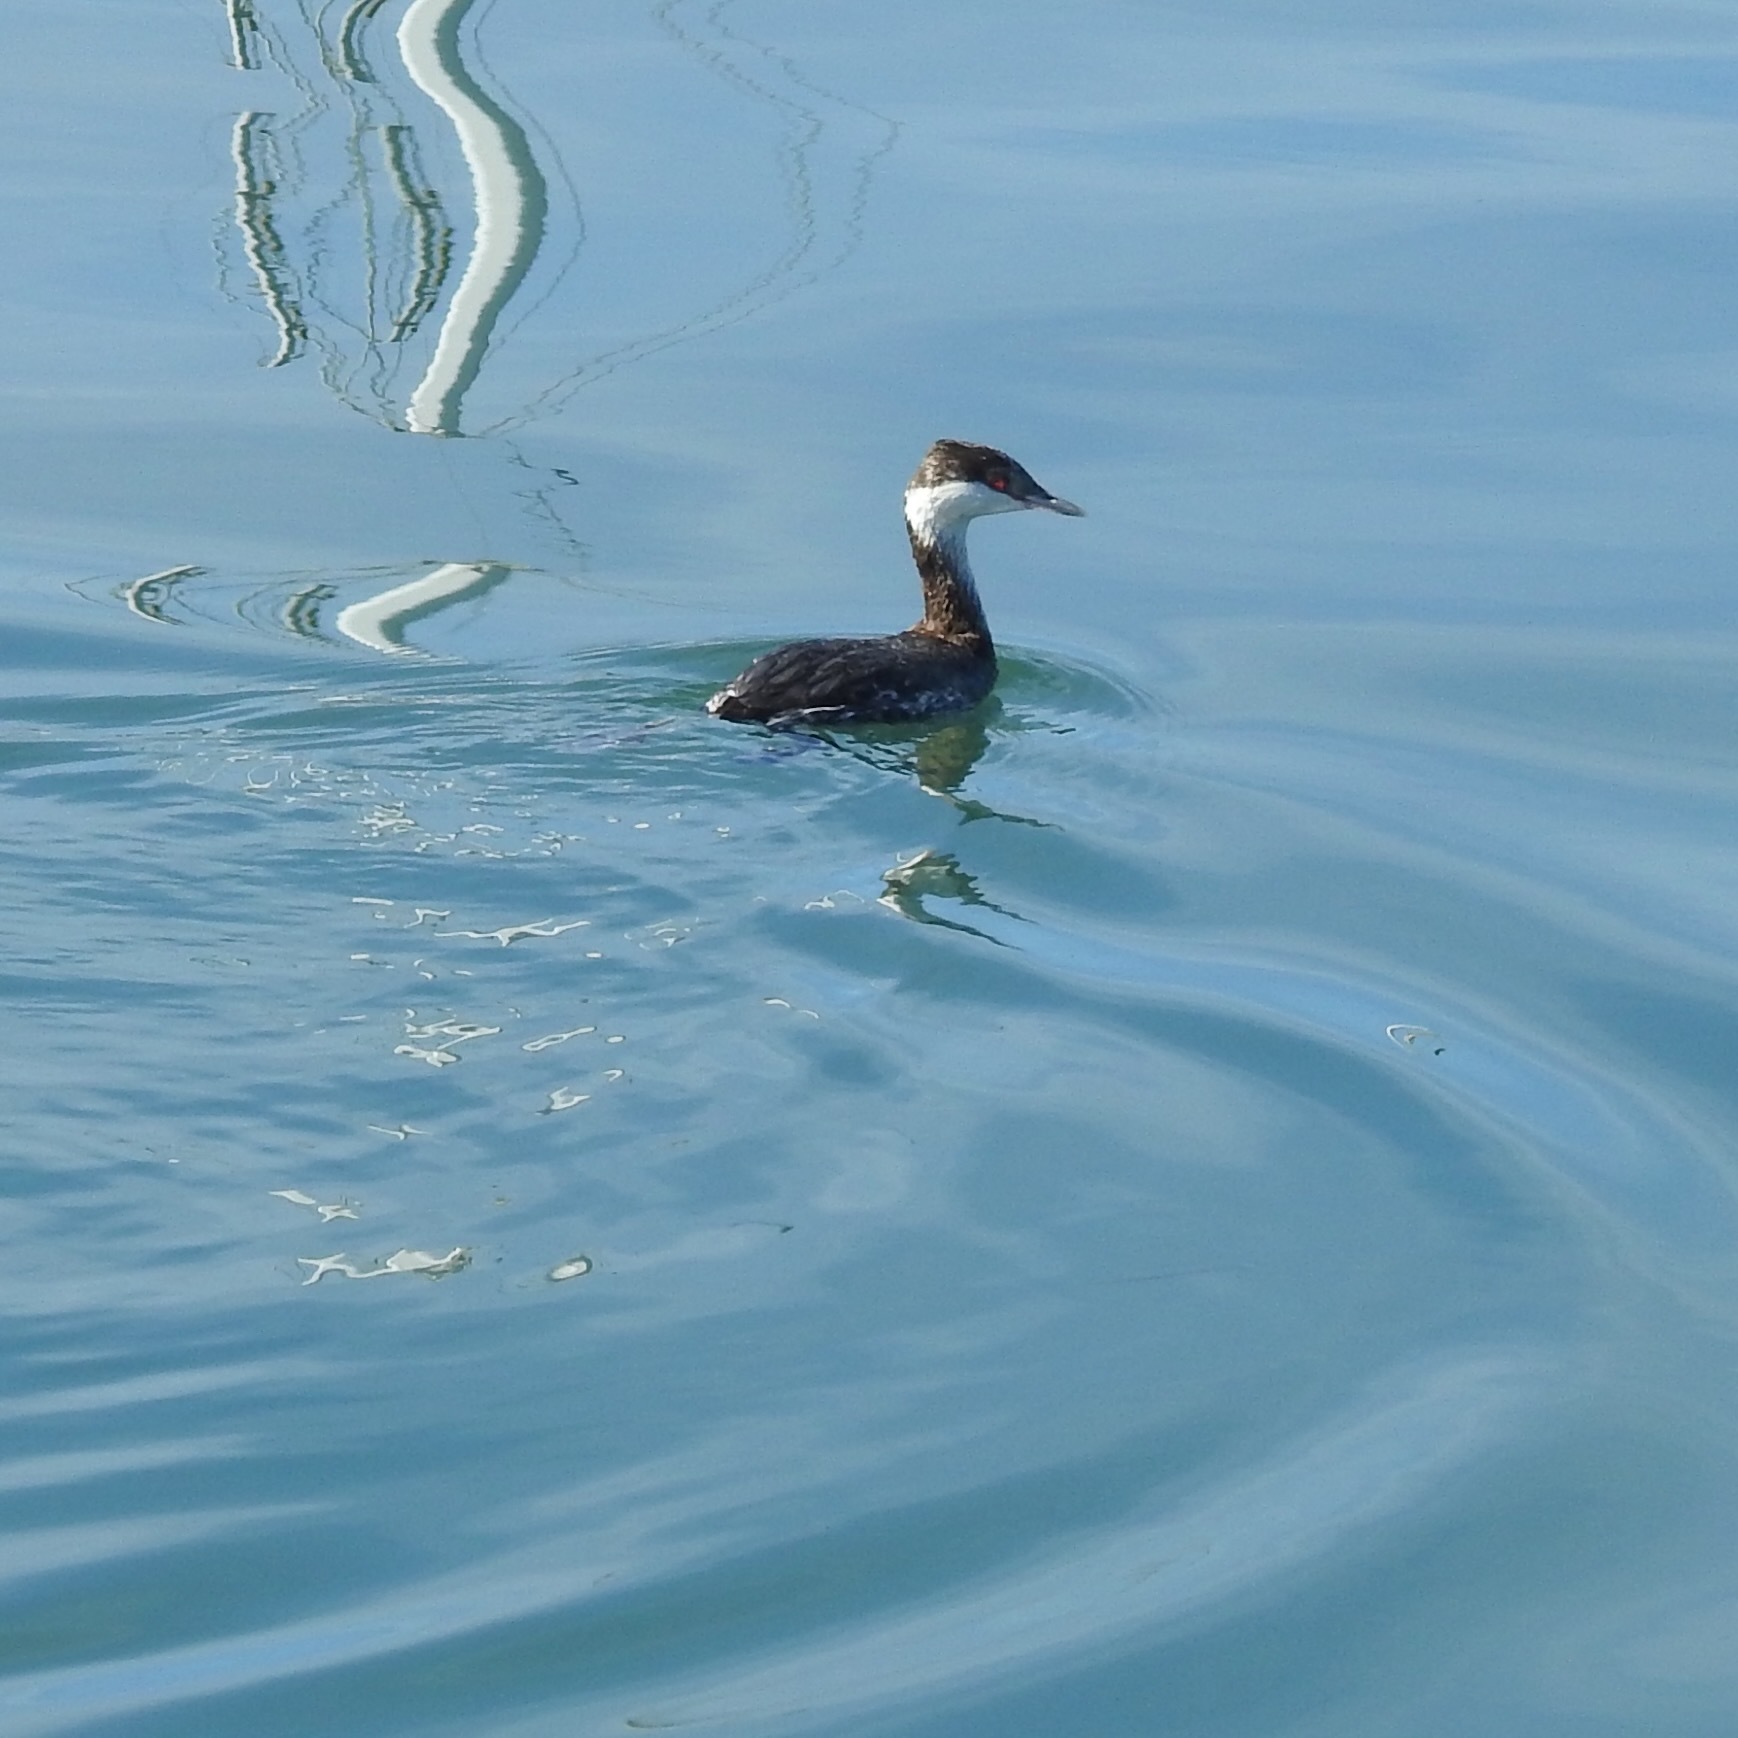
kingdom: Animalia
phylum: Chordata
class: Aves
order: Podicipediformes
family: Podicipedidae
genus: Podiceps
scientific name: Podiceps auritus
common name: Horned grebe
